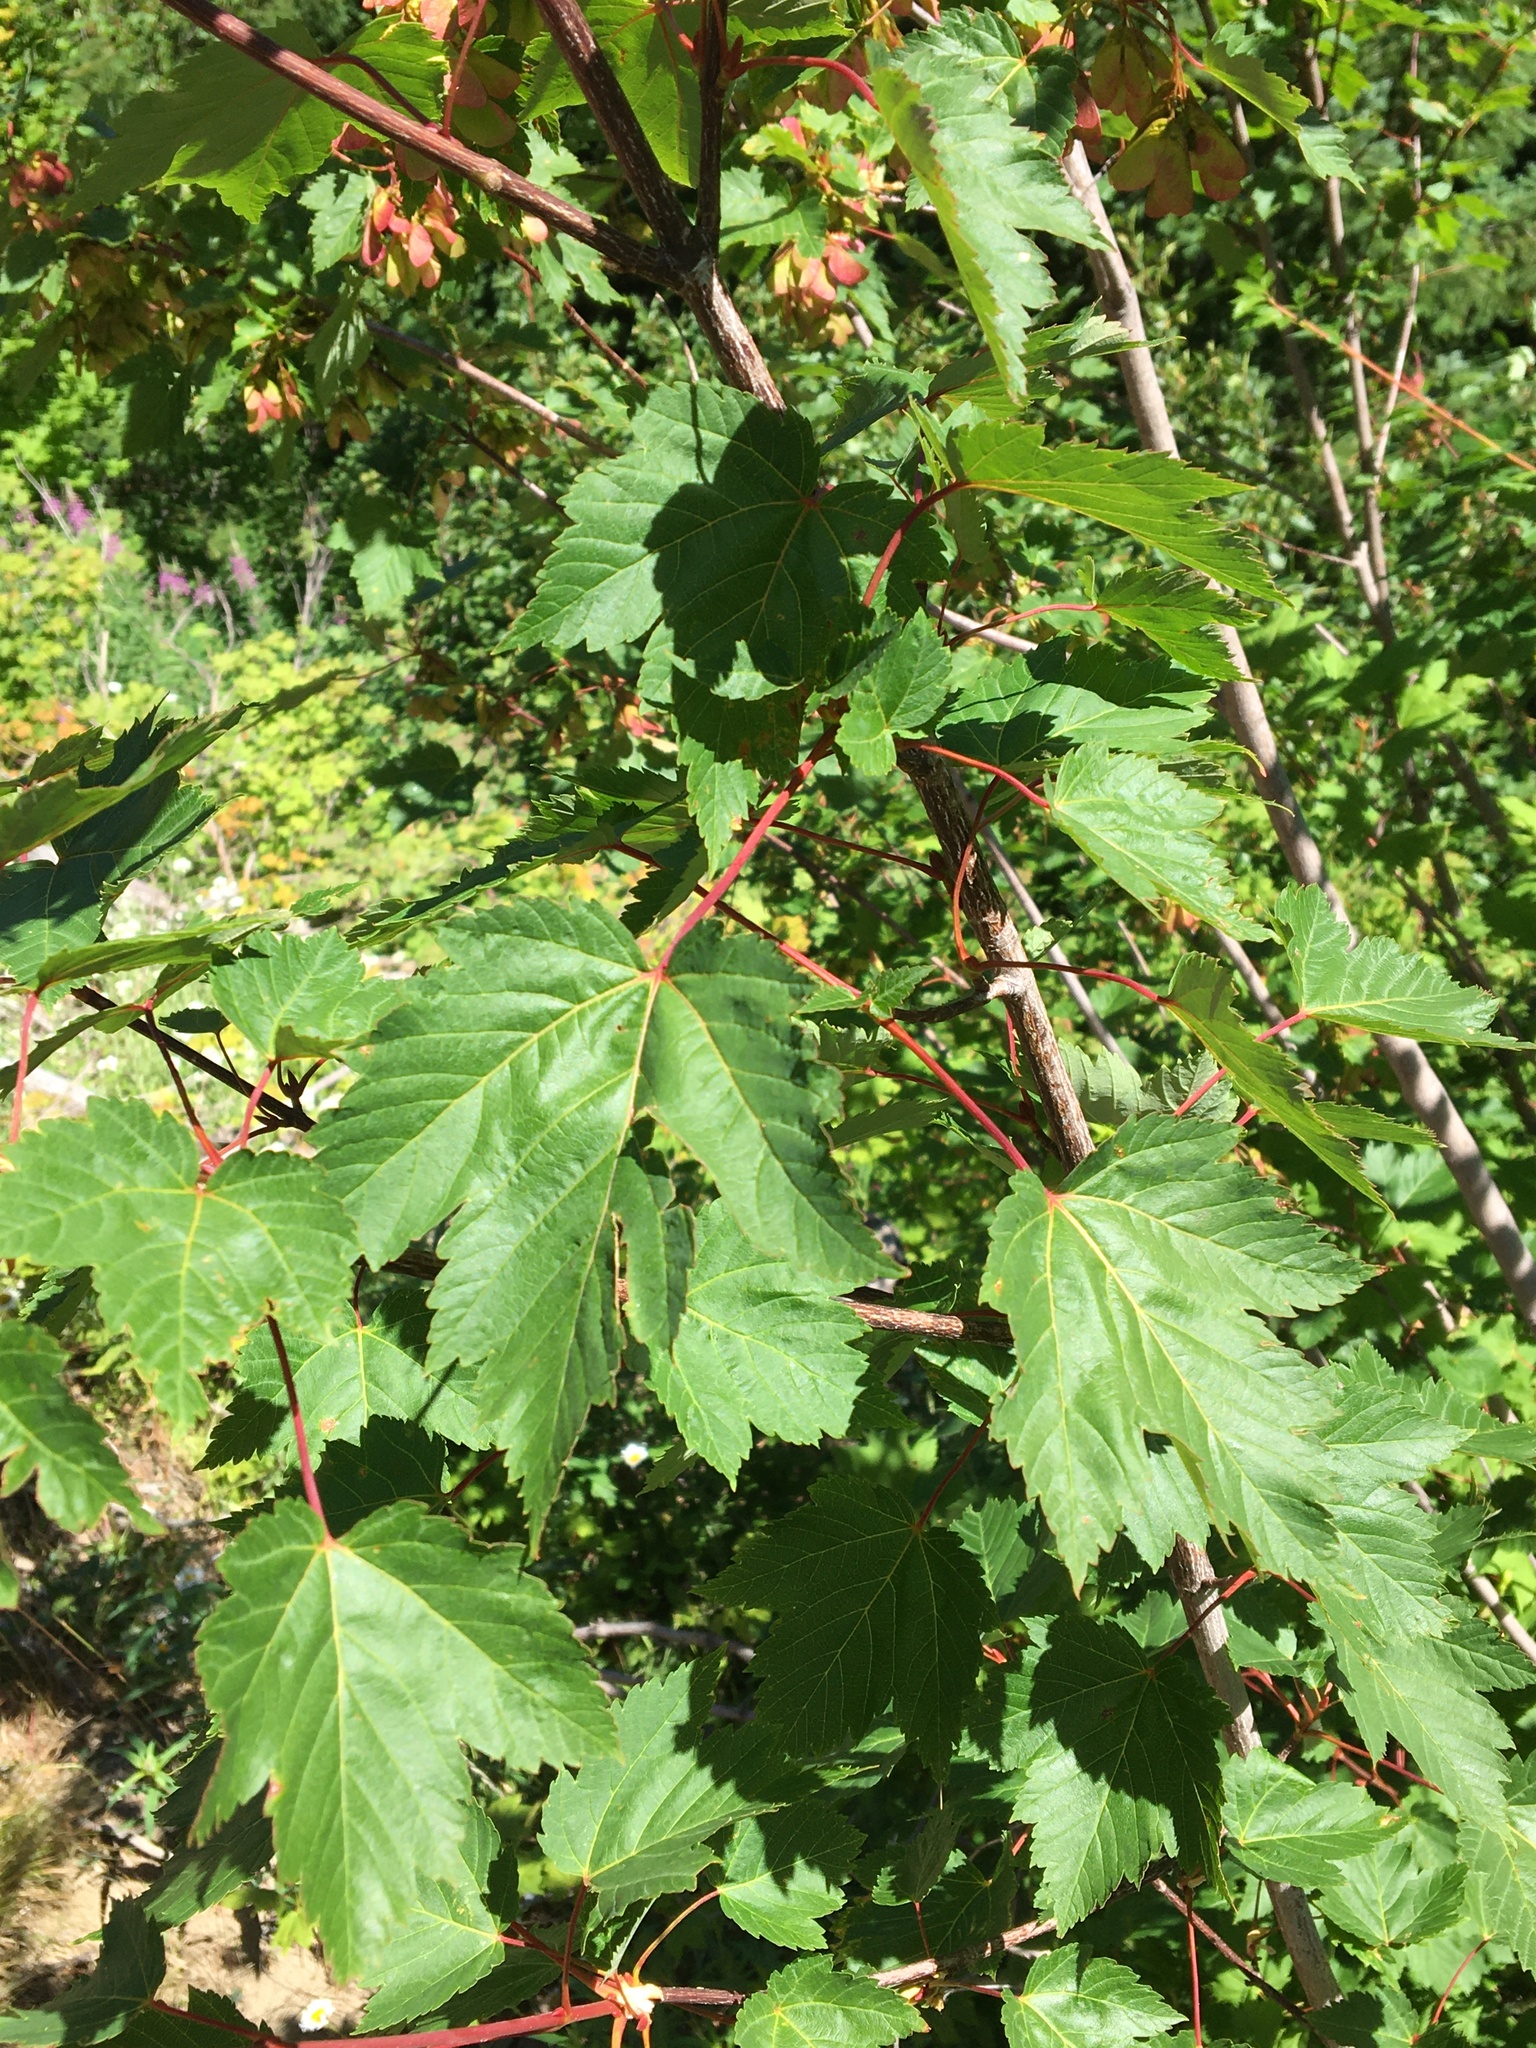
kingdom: Plantae
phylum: Tracheophyta
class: Magnoliopsida
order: Sapindales
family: Sapindaceae
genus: Acer
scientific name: Acer glabrum
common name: Rocky mountain maple
